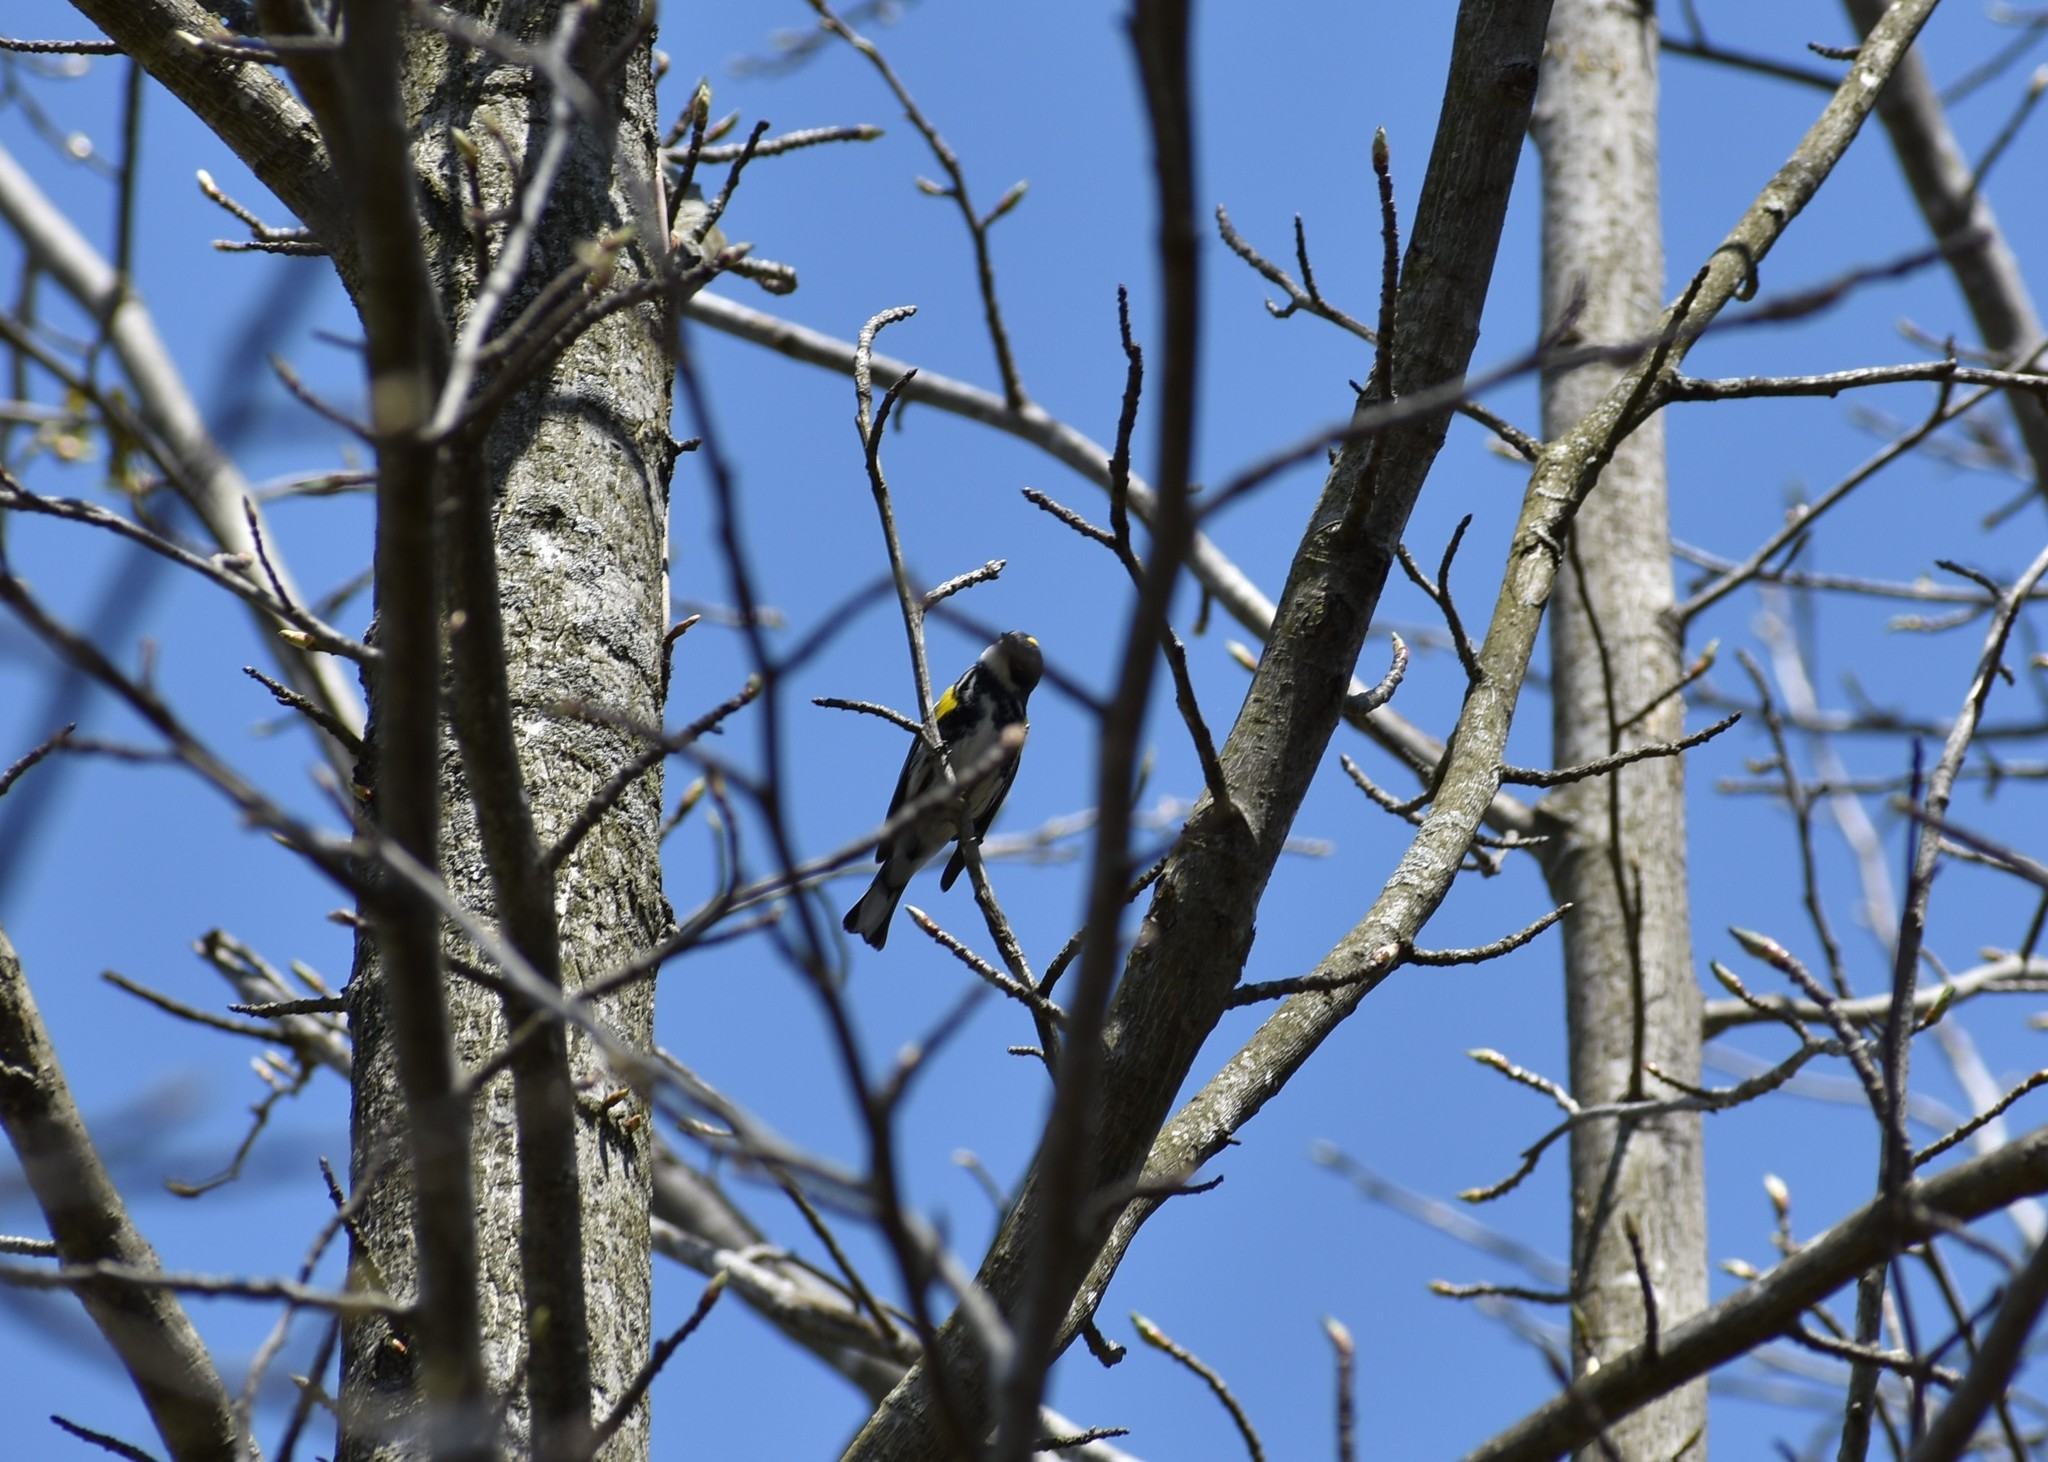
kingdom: Animalia
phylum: Chordata
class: Aves
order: Passeriformes
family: Parulidae
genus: Setophaga
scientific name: Setophaga coronata
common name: Myrtle warbler
